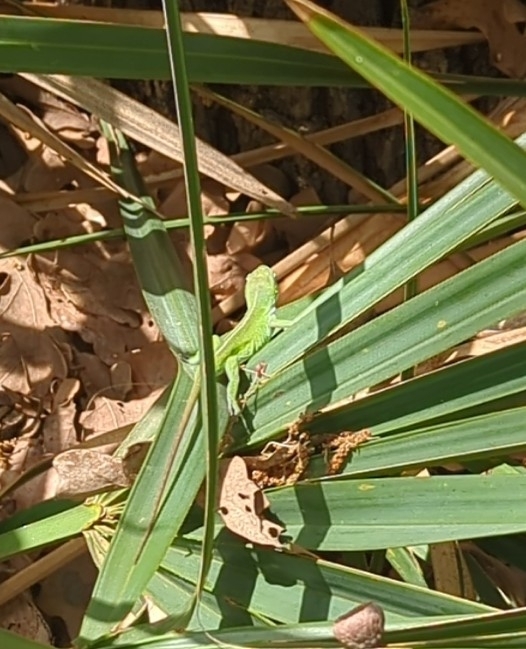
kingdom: Animalia
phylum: Chordata
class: Squamata
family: Dactyloidae
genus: Anolis
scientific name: Anolis carolinensis
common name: Green anole
